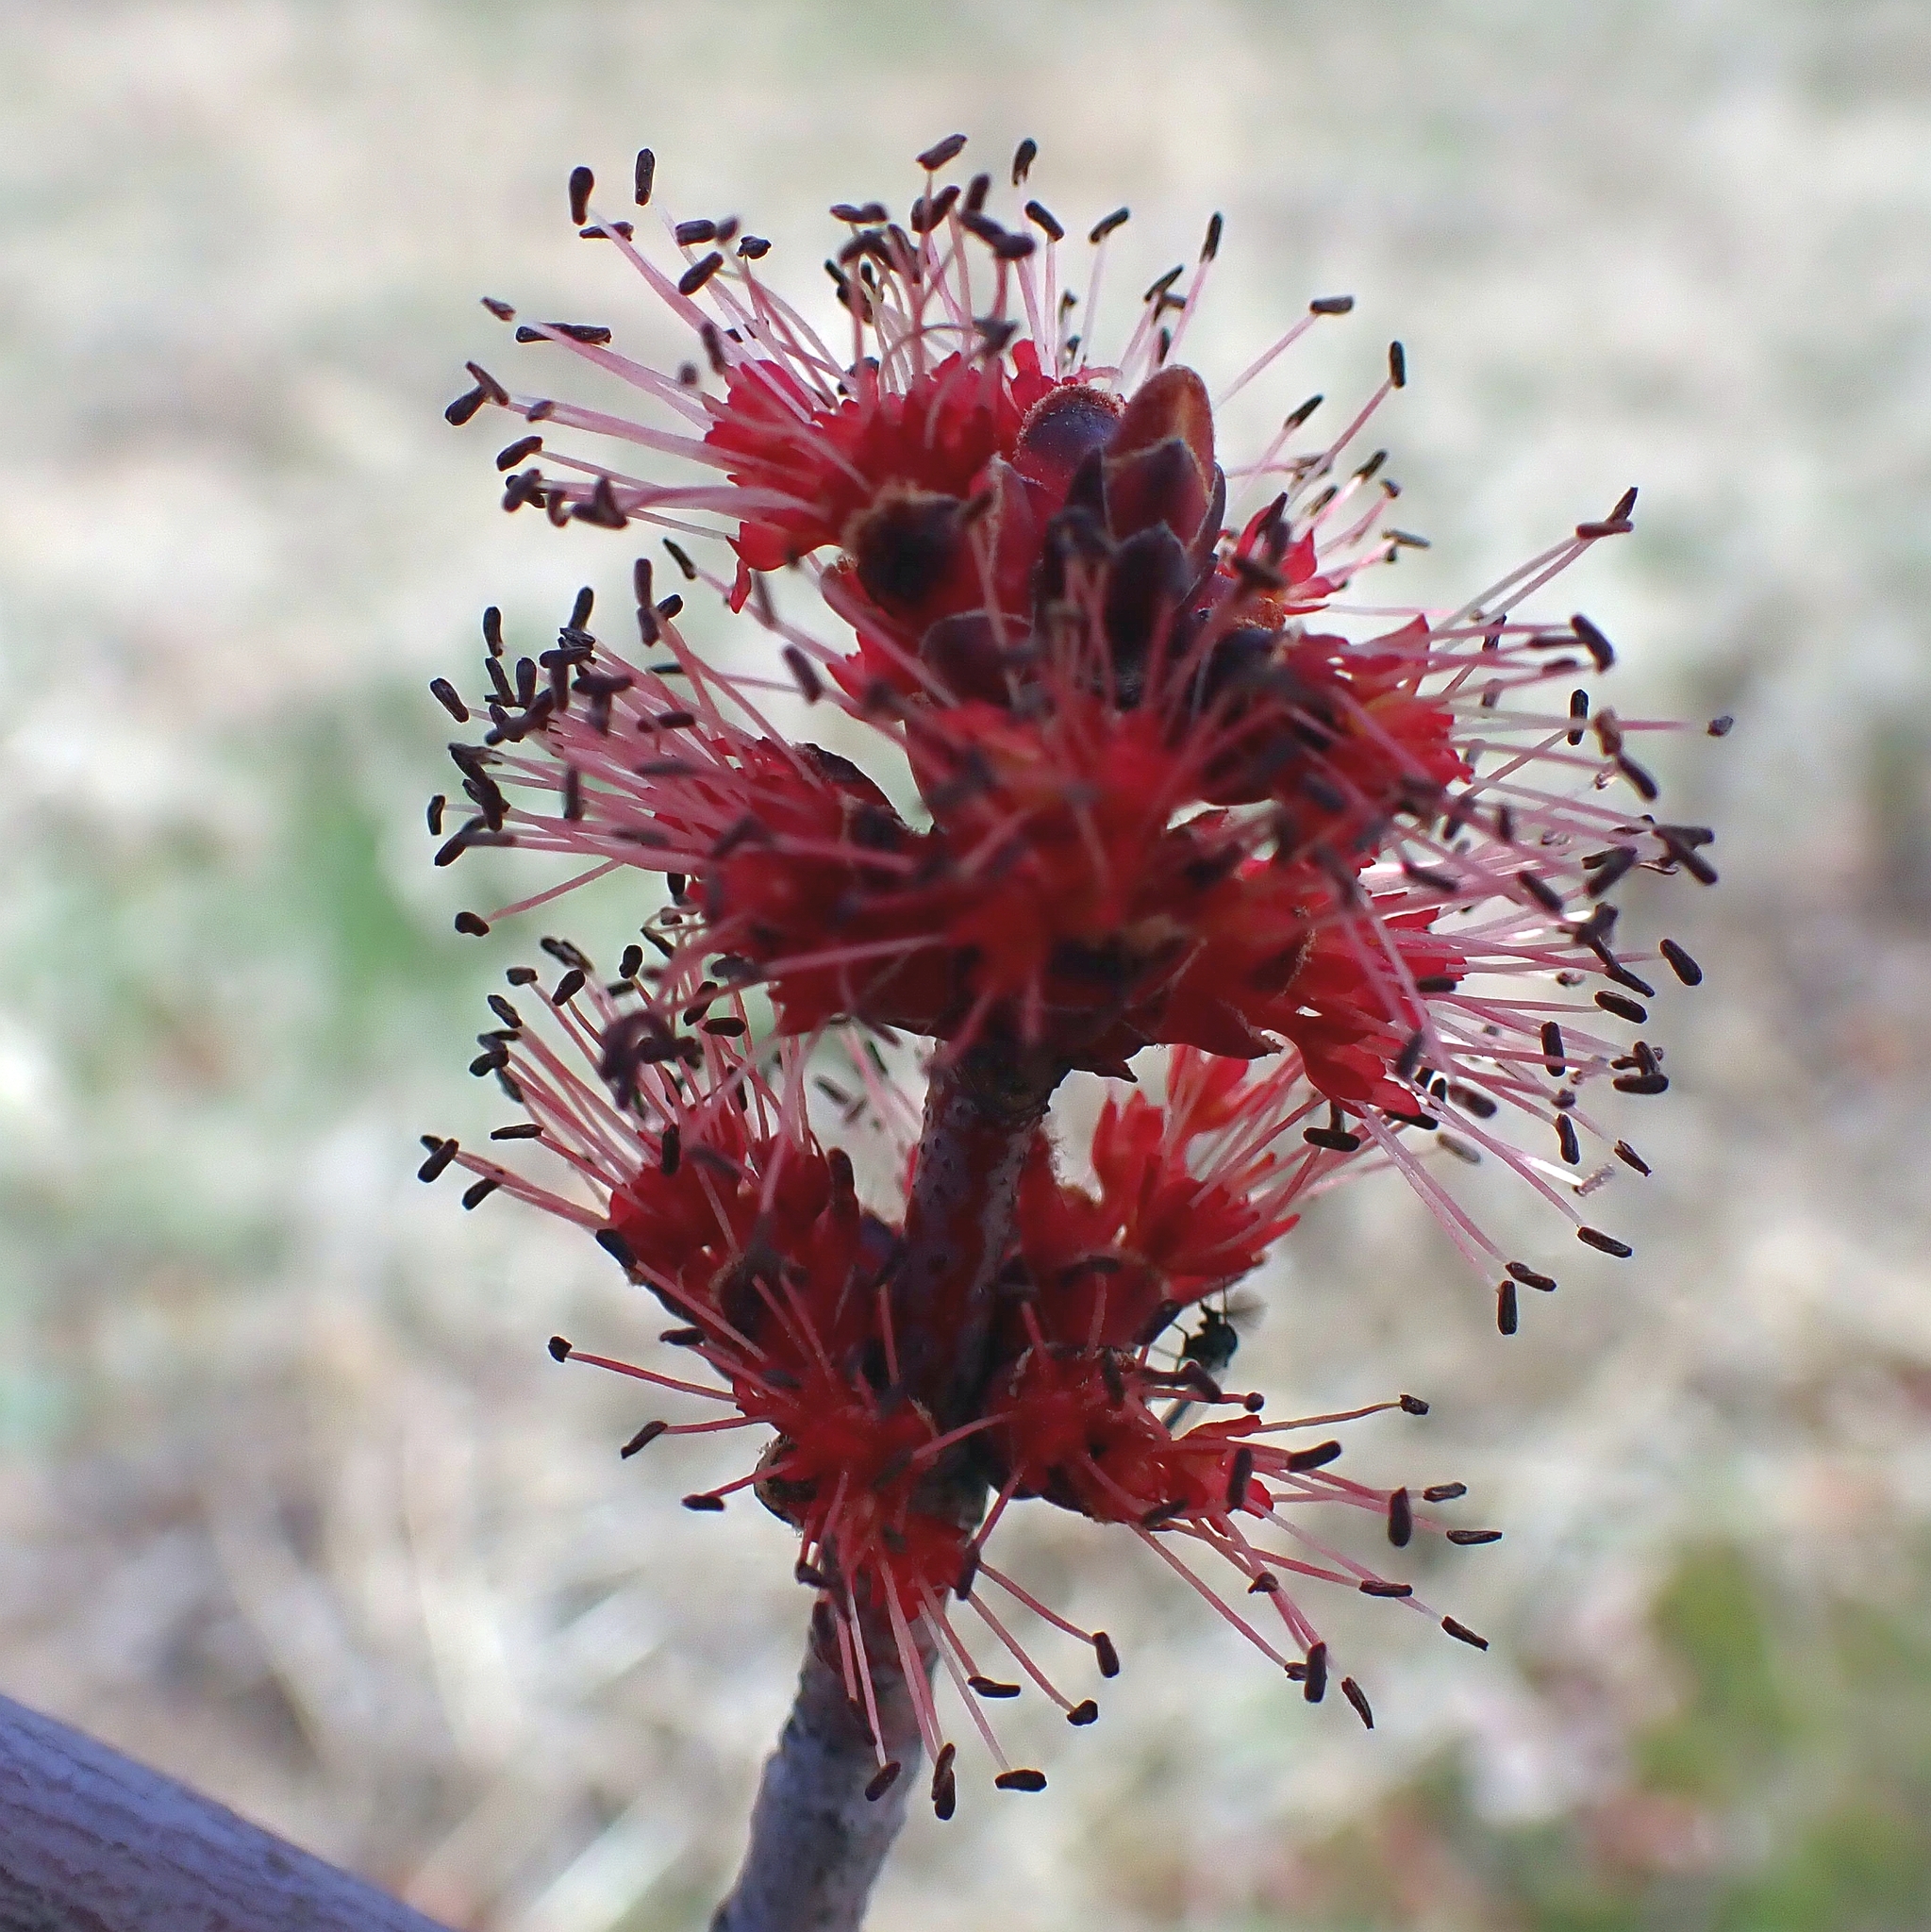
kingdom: Plantae
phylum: Tracheophyta
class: Magnoliopsida
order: Sapindales
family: Sapindaceae
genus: Acer
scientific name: Acer rubrum
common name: Red maple
